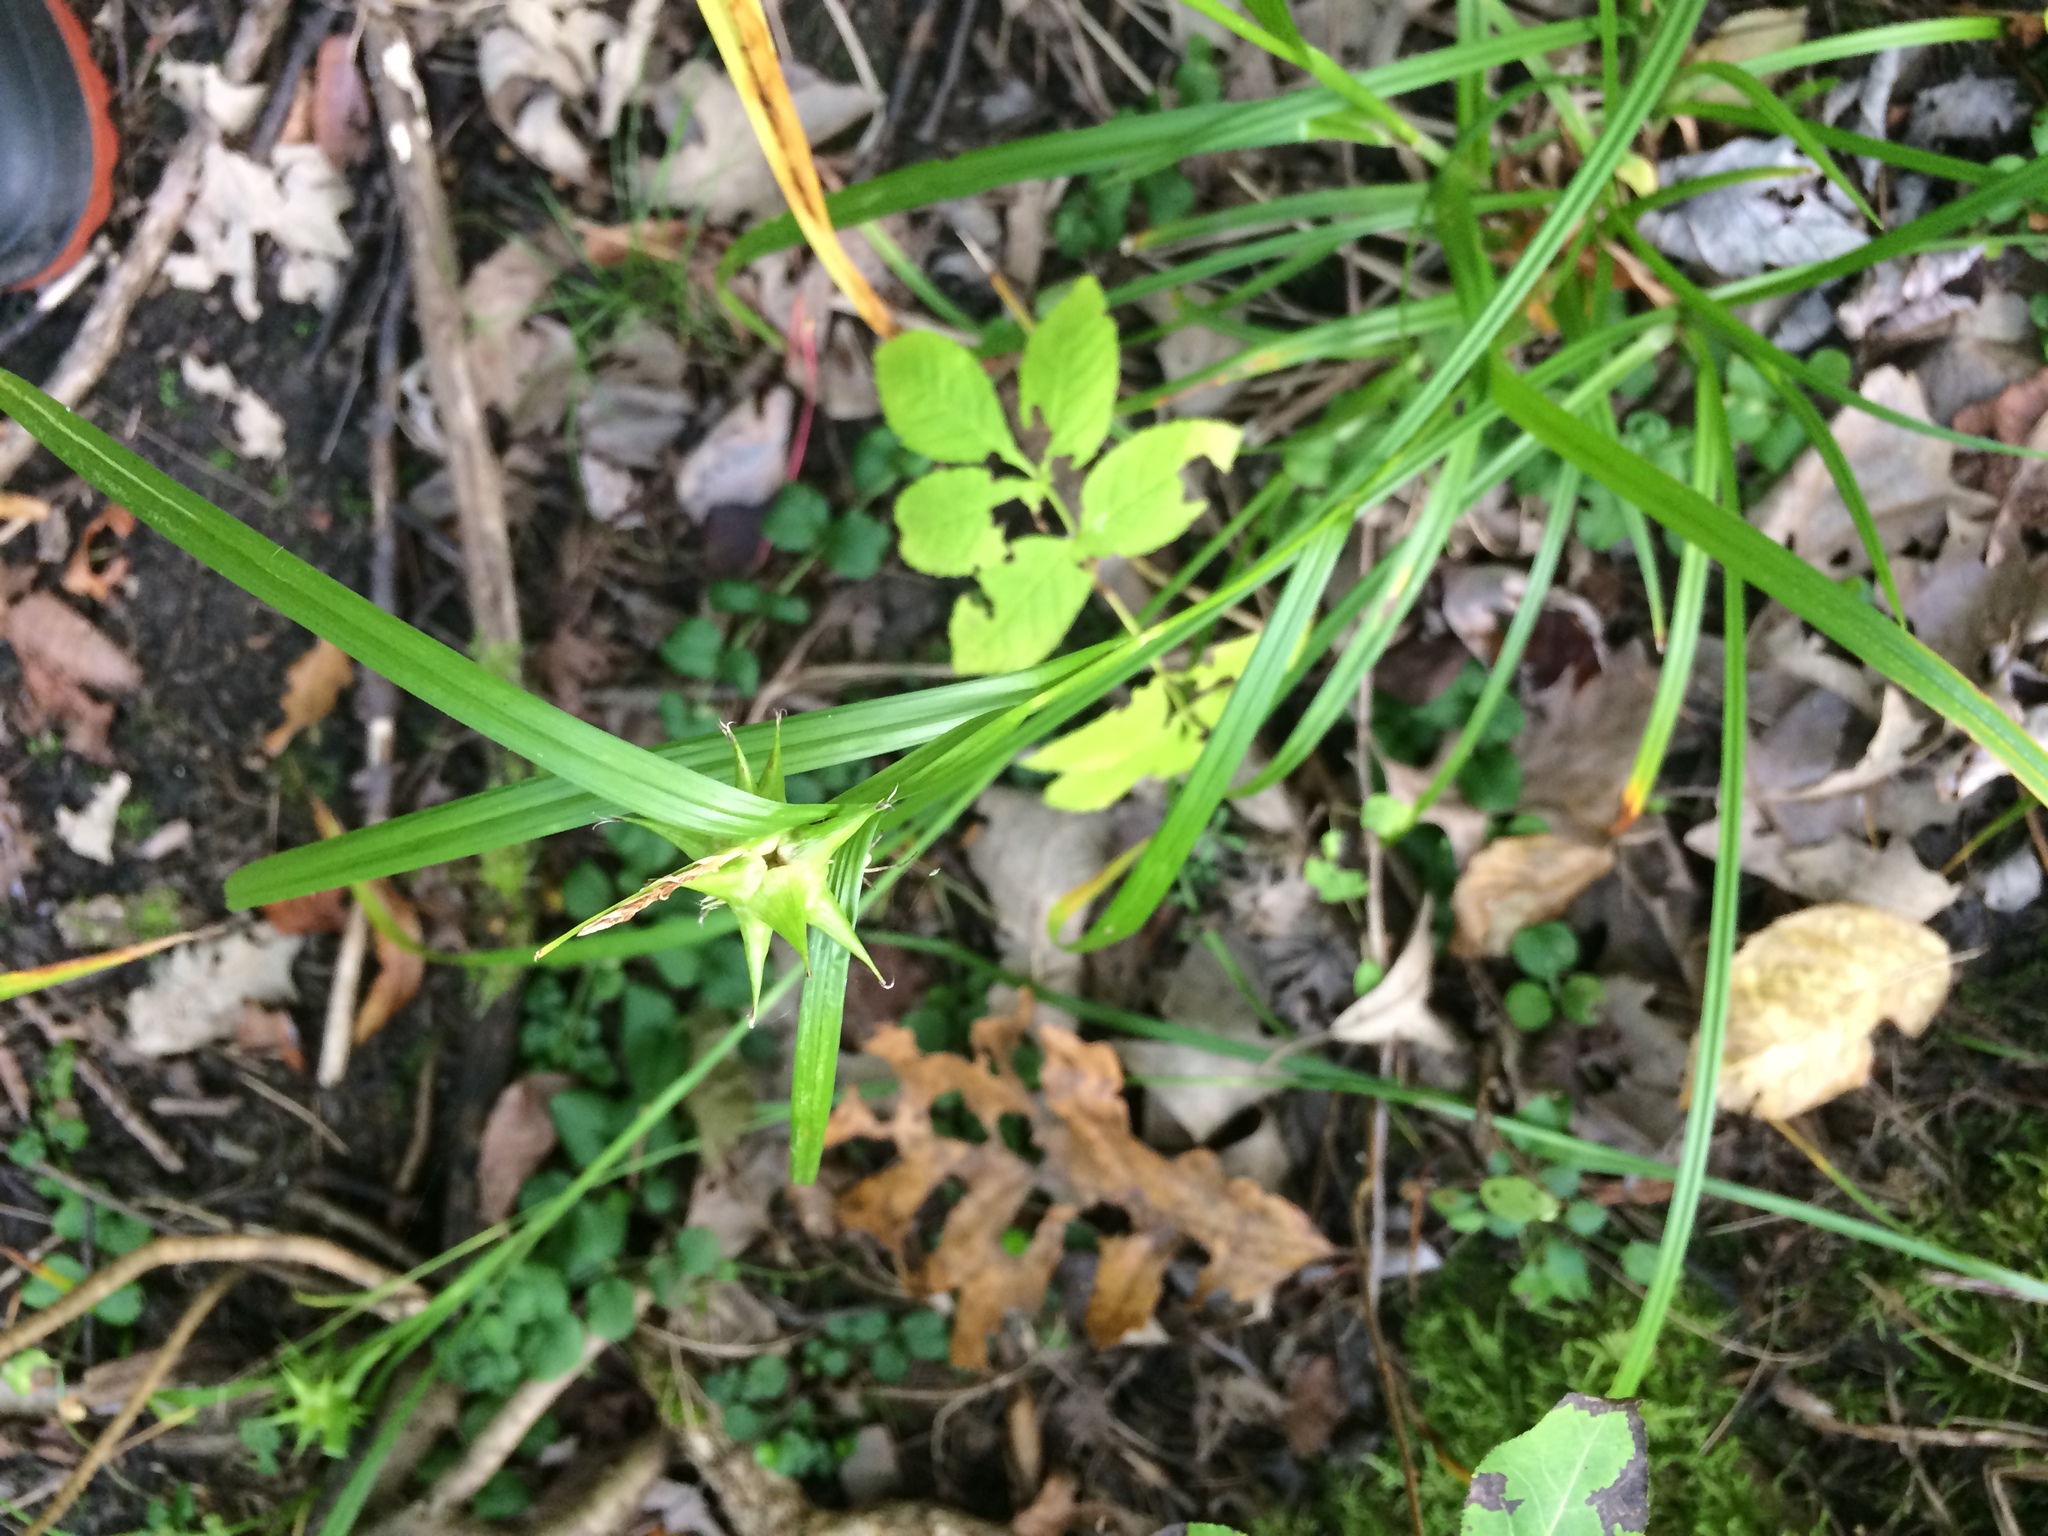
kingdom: Plantae
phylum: Tracheophyta
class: Liliopsida
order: Poales
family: Cyperaceae
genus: Carex
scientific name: Carex grayi
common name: Asa gray's sedge
